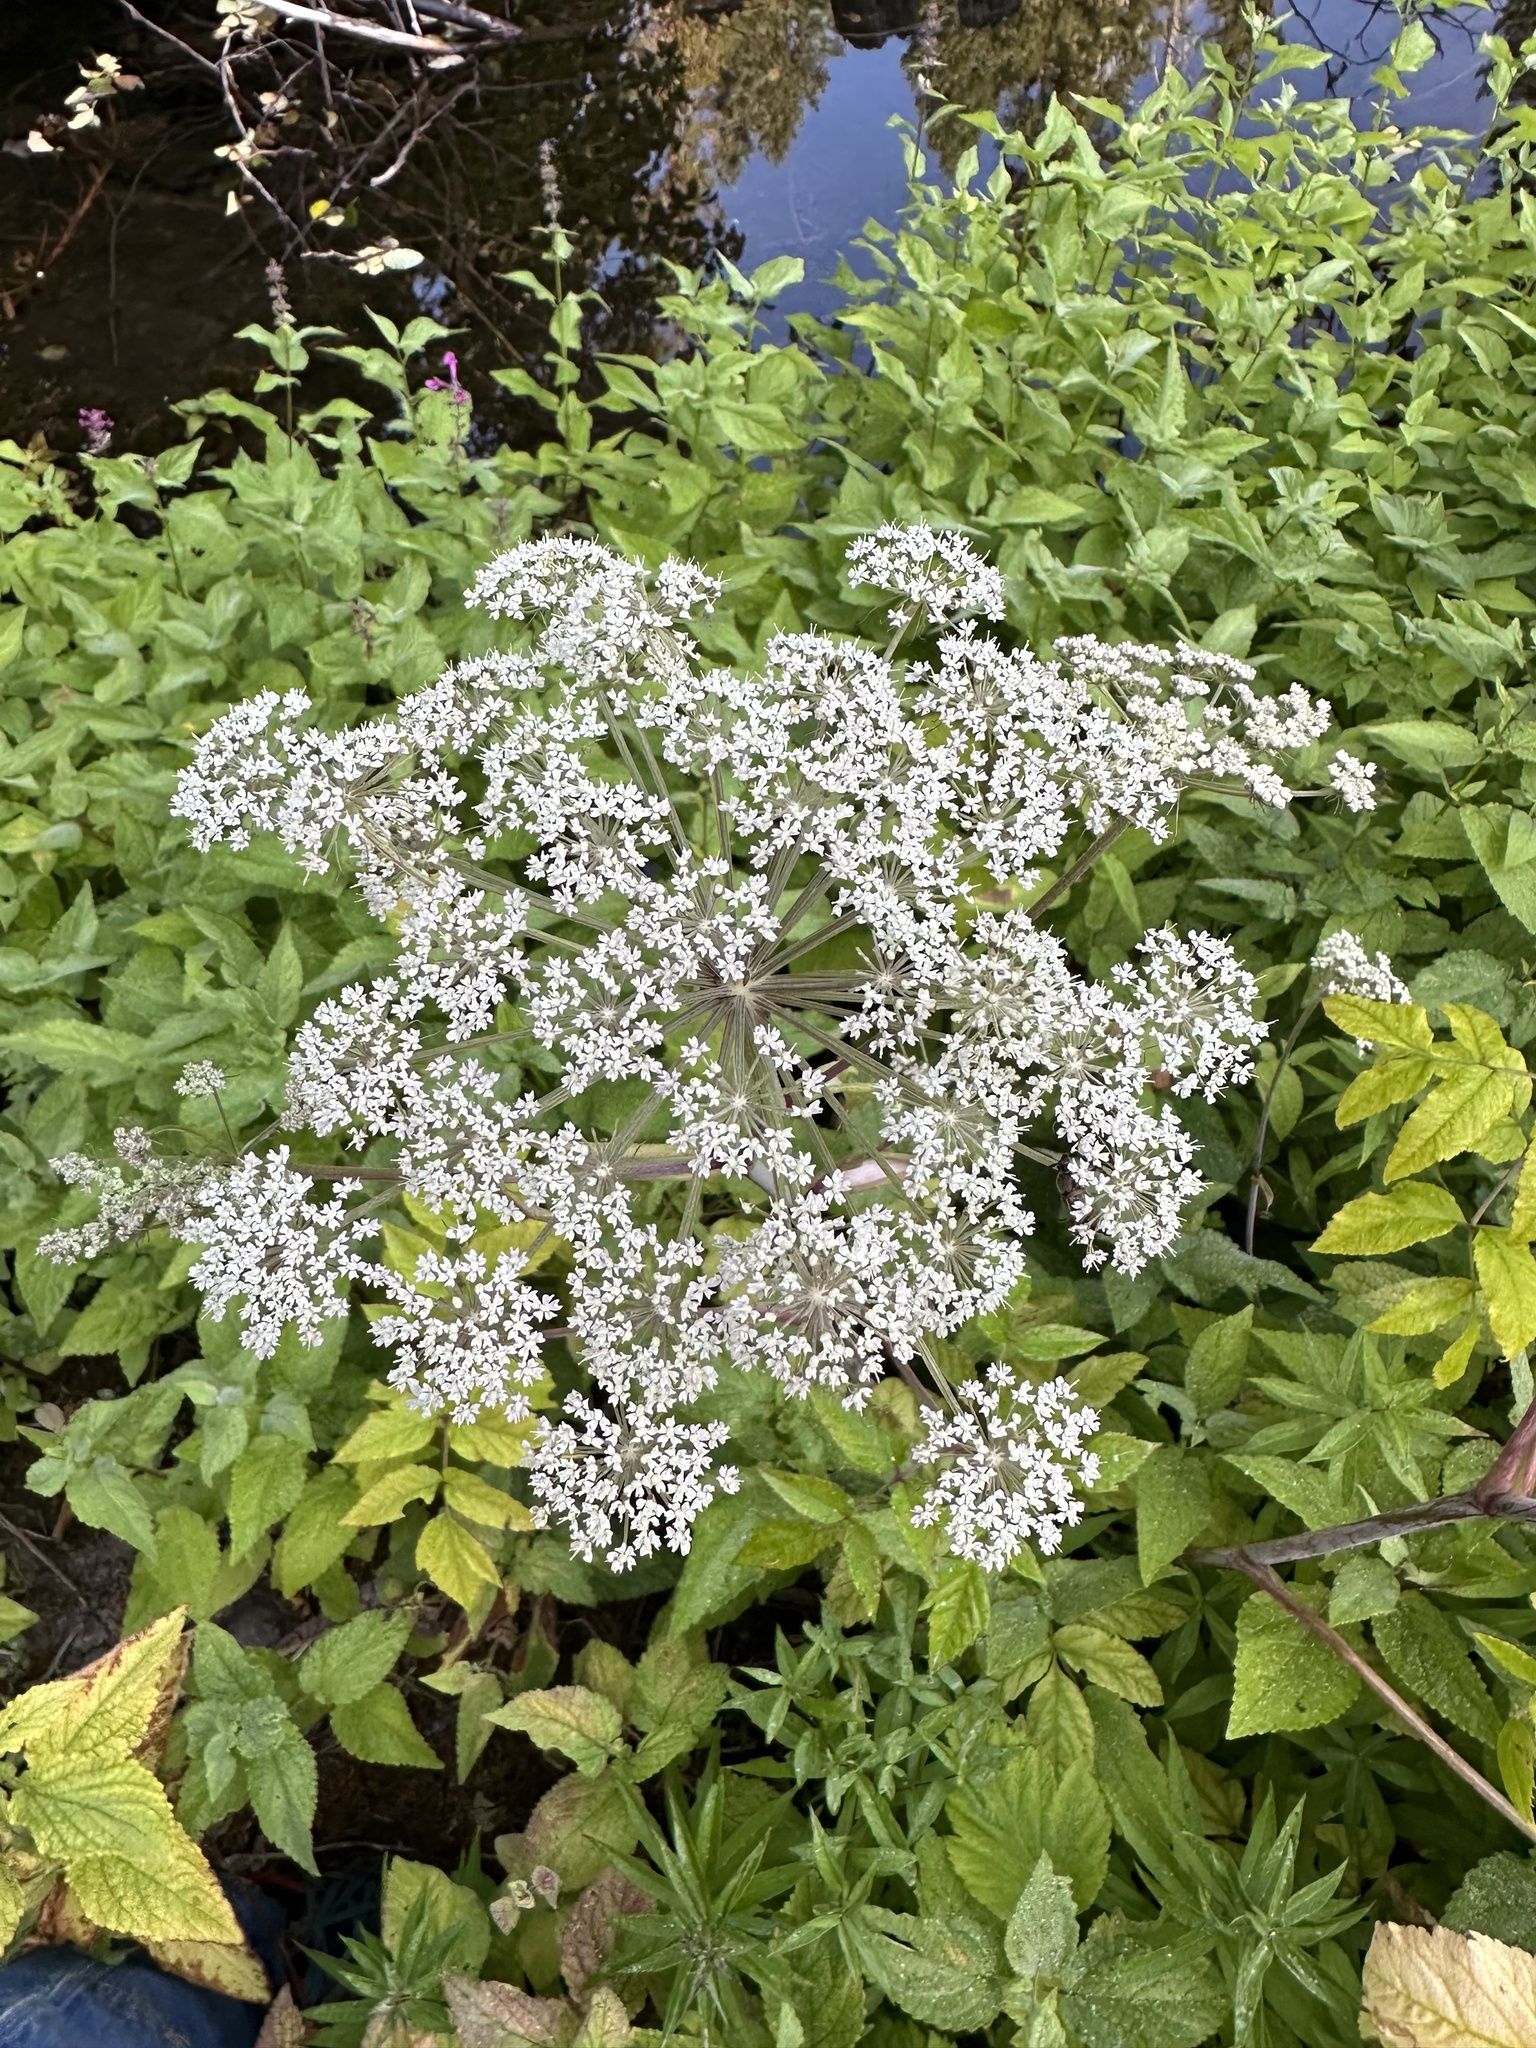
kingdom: Plantae
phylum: Tracheophyta
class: Magnoliopsida
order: Apiales
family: Apiaceae
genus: Angelica
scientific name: Angelica genuflexa
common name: Kneeling angelica
